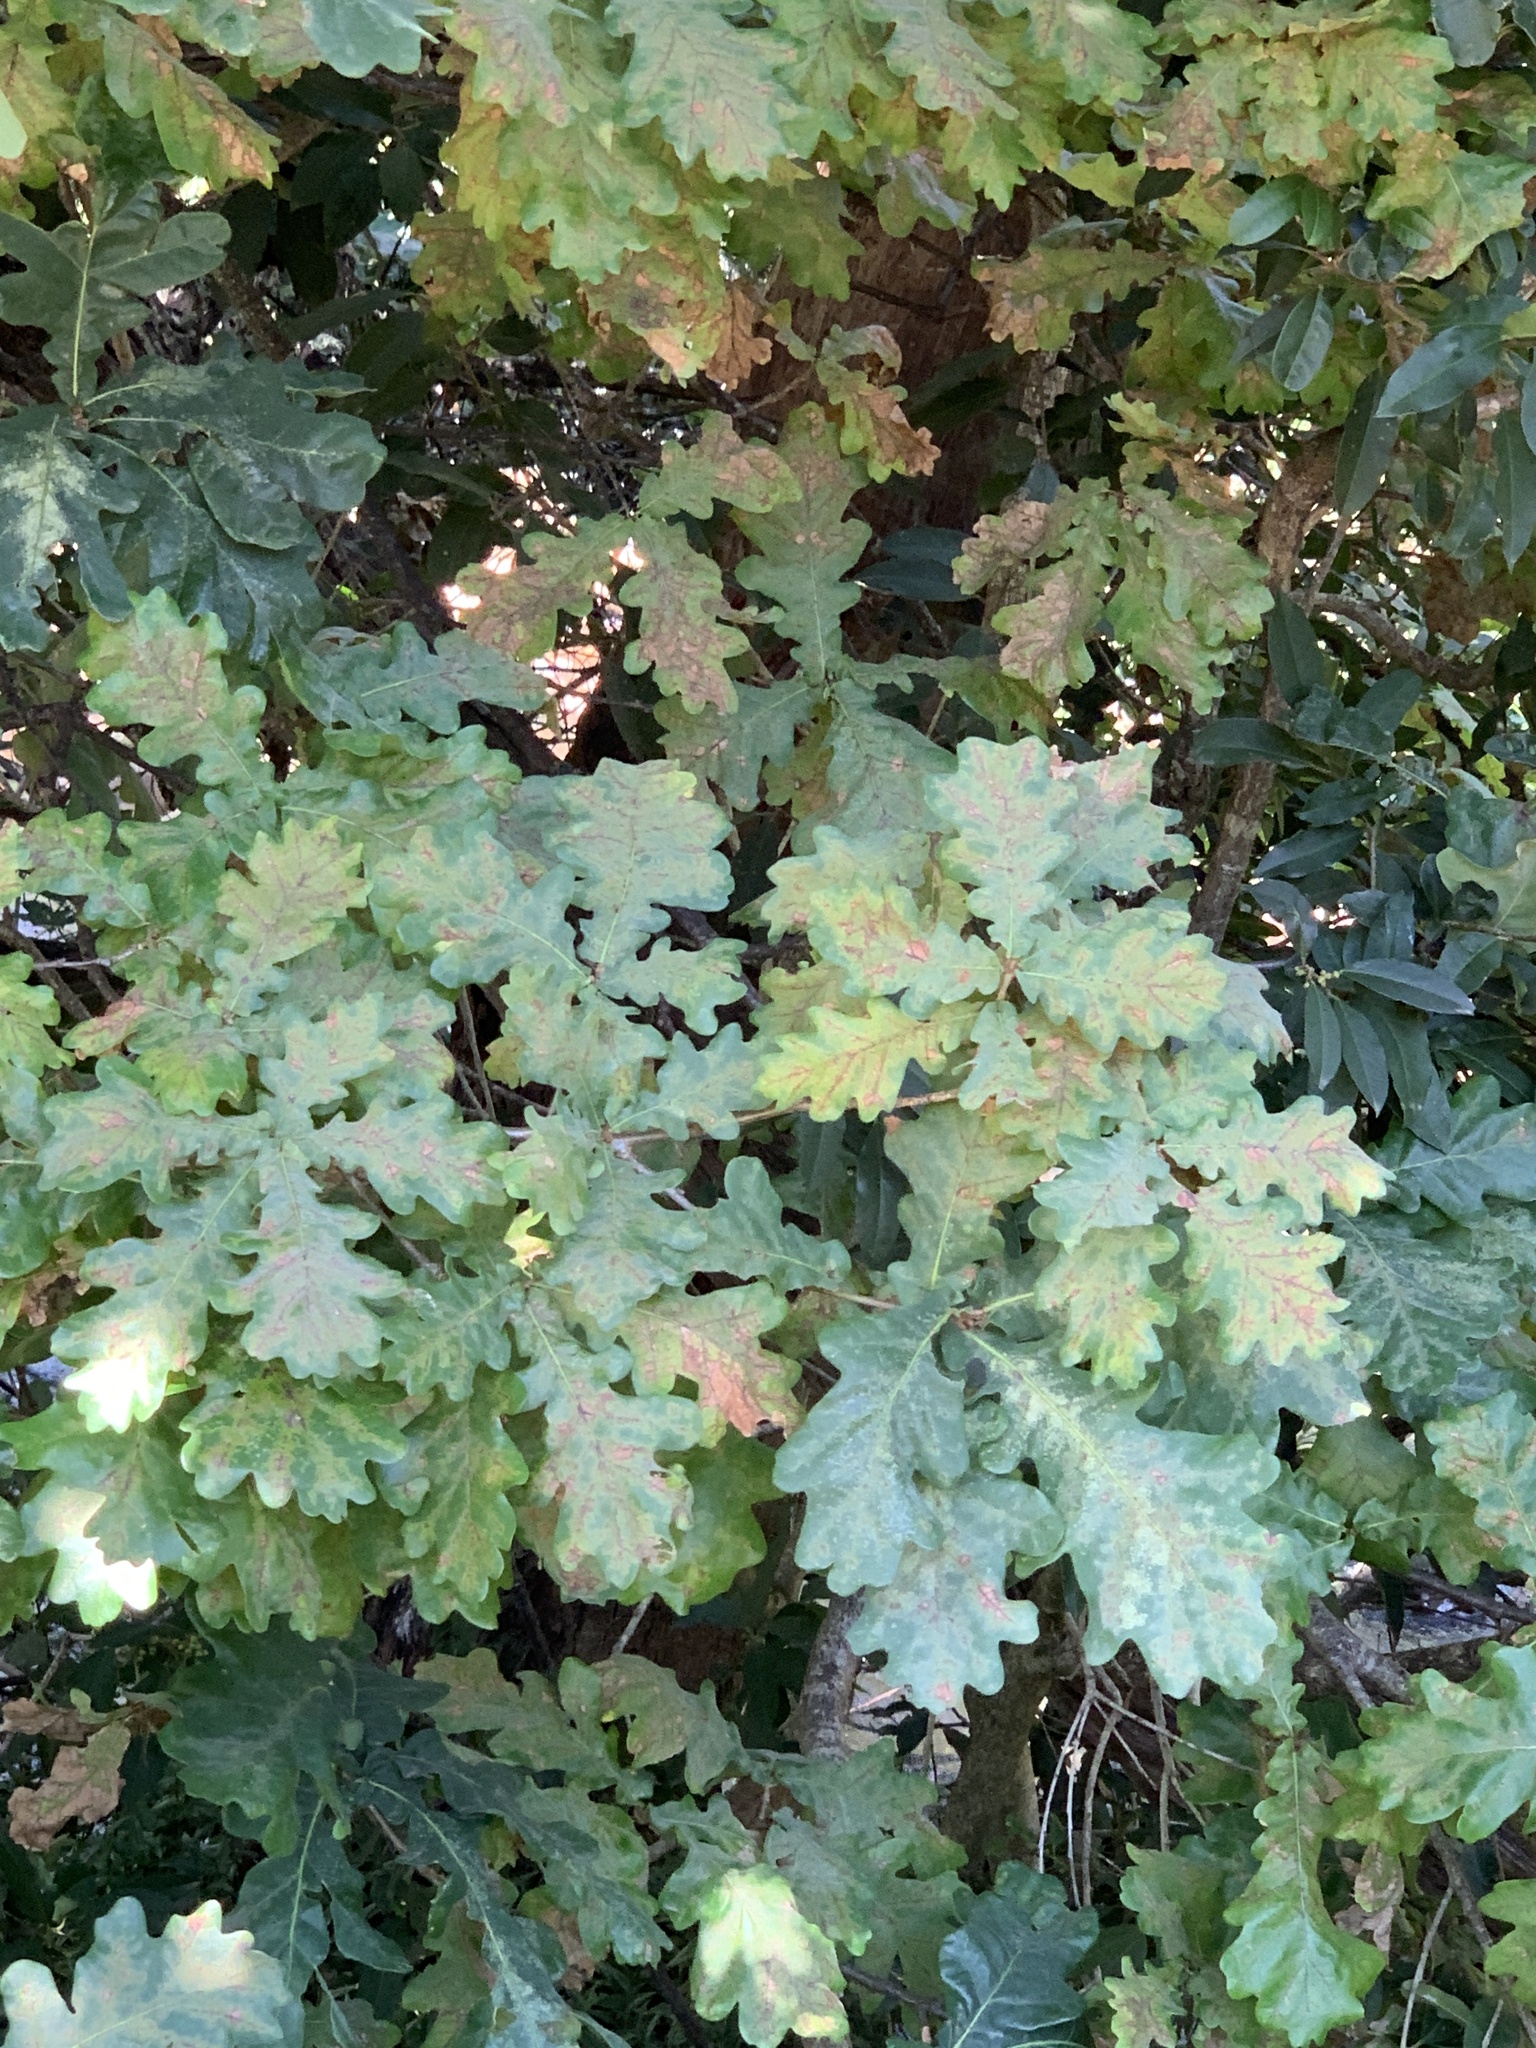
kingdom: Plantae
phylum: Tracheophyta
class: Magnoliopsida
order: Fagales
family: Fagaceae
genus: Quercus
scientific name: Quercus robur
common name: Pedunculate oak
